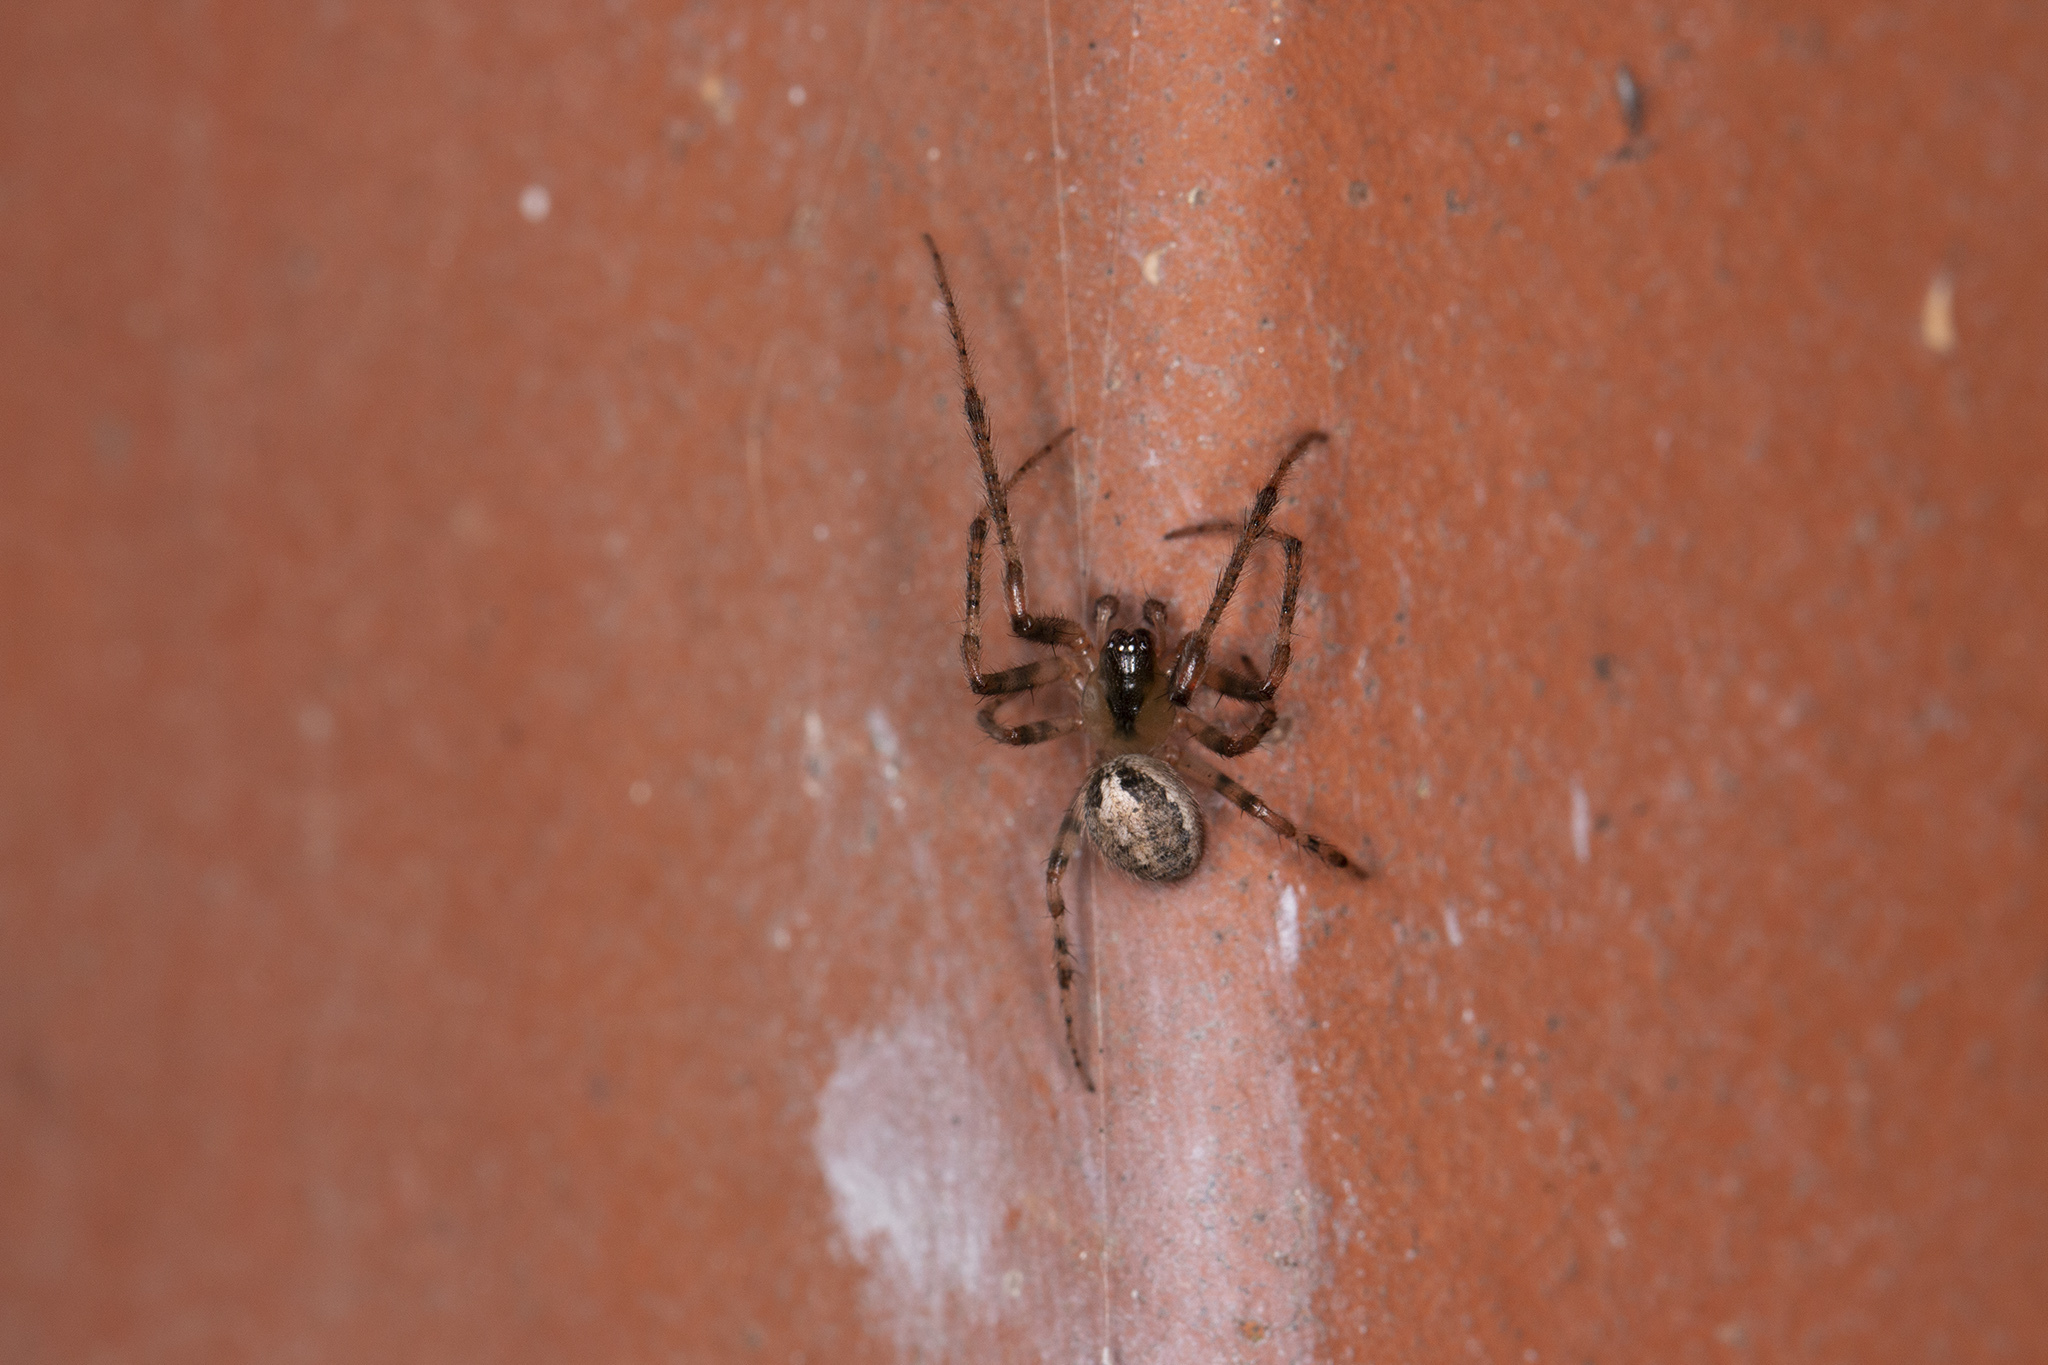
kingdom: Animalia
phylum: Arthropoda
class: Arachnida
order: Araneae
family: Araneidae
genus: Zygiella
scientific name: Zygiella x-notata
